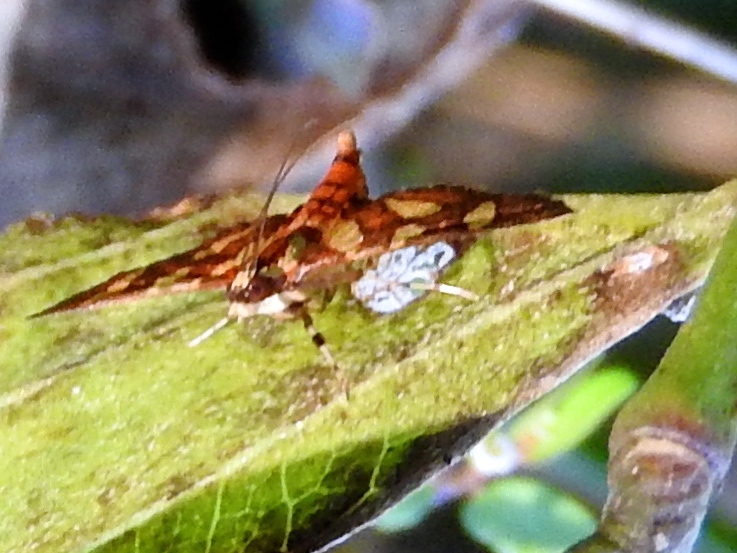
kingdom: Animalia
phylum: Arthropoda
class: Insecta
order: Lepidoptera
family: Crambidae
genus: Syngamia
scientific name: Syngamia florella
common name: Orange-spotted flower moth
